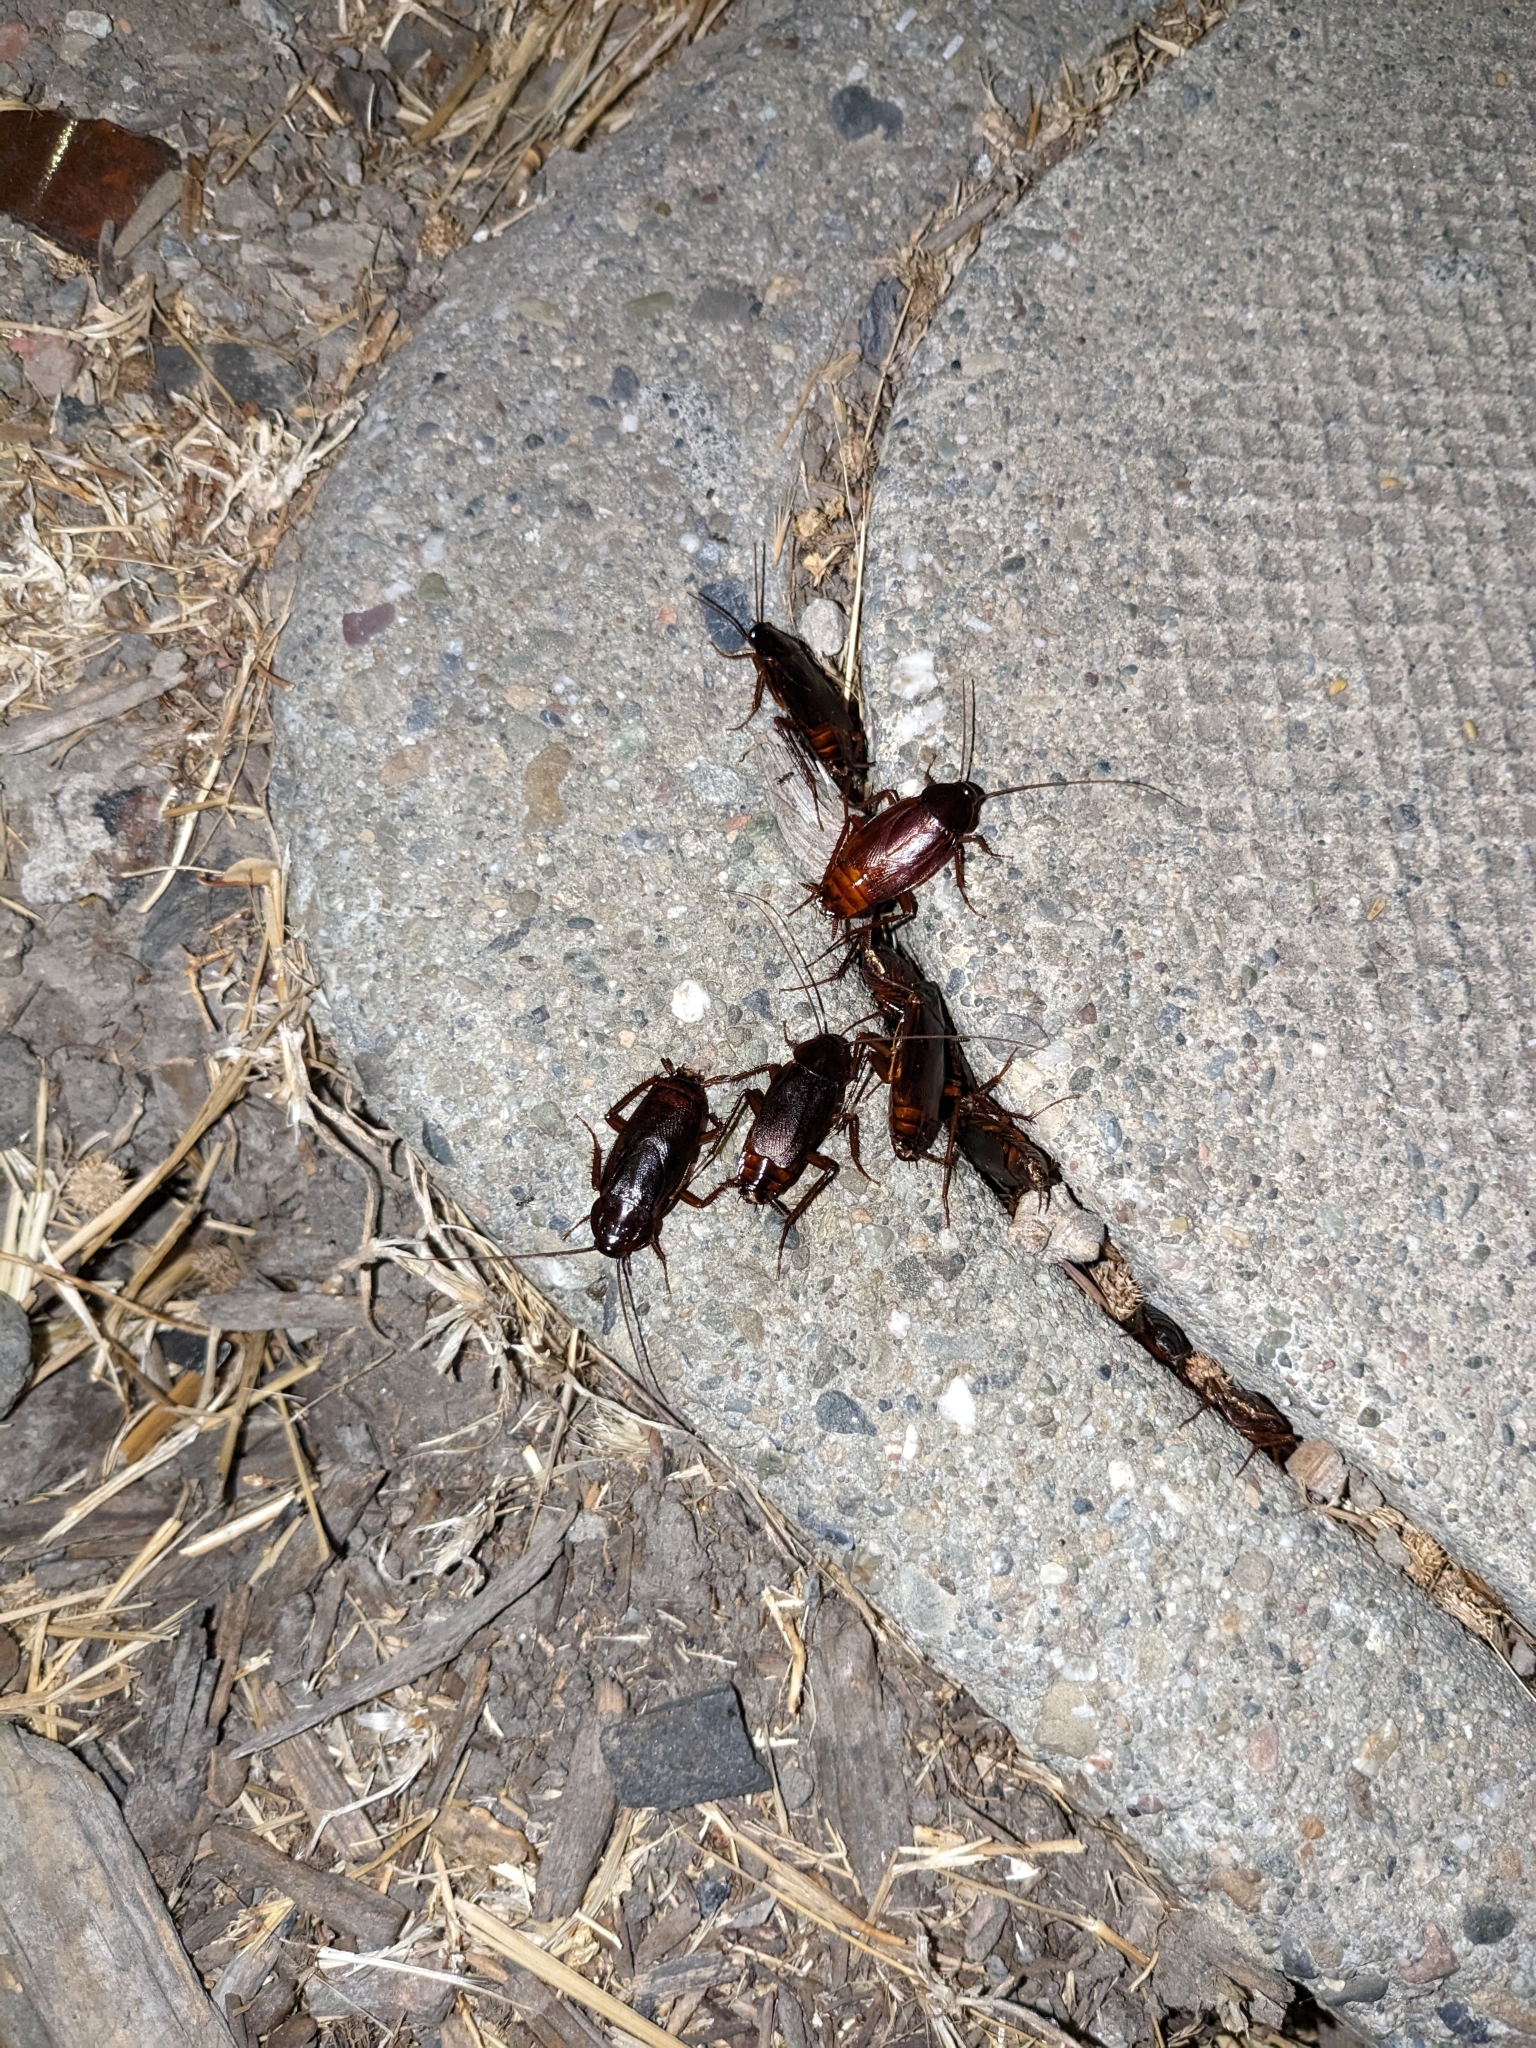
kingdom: Animalia
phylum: Arthropoda
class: Insecta
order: Blattodea
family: Blattidae
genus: Blatta
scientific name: Blatta orientalis
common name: Oriental cockroach
